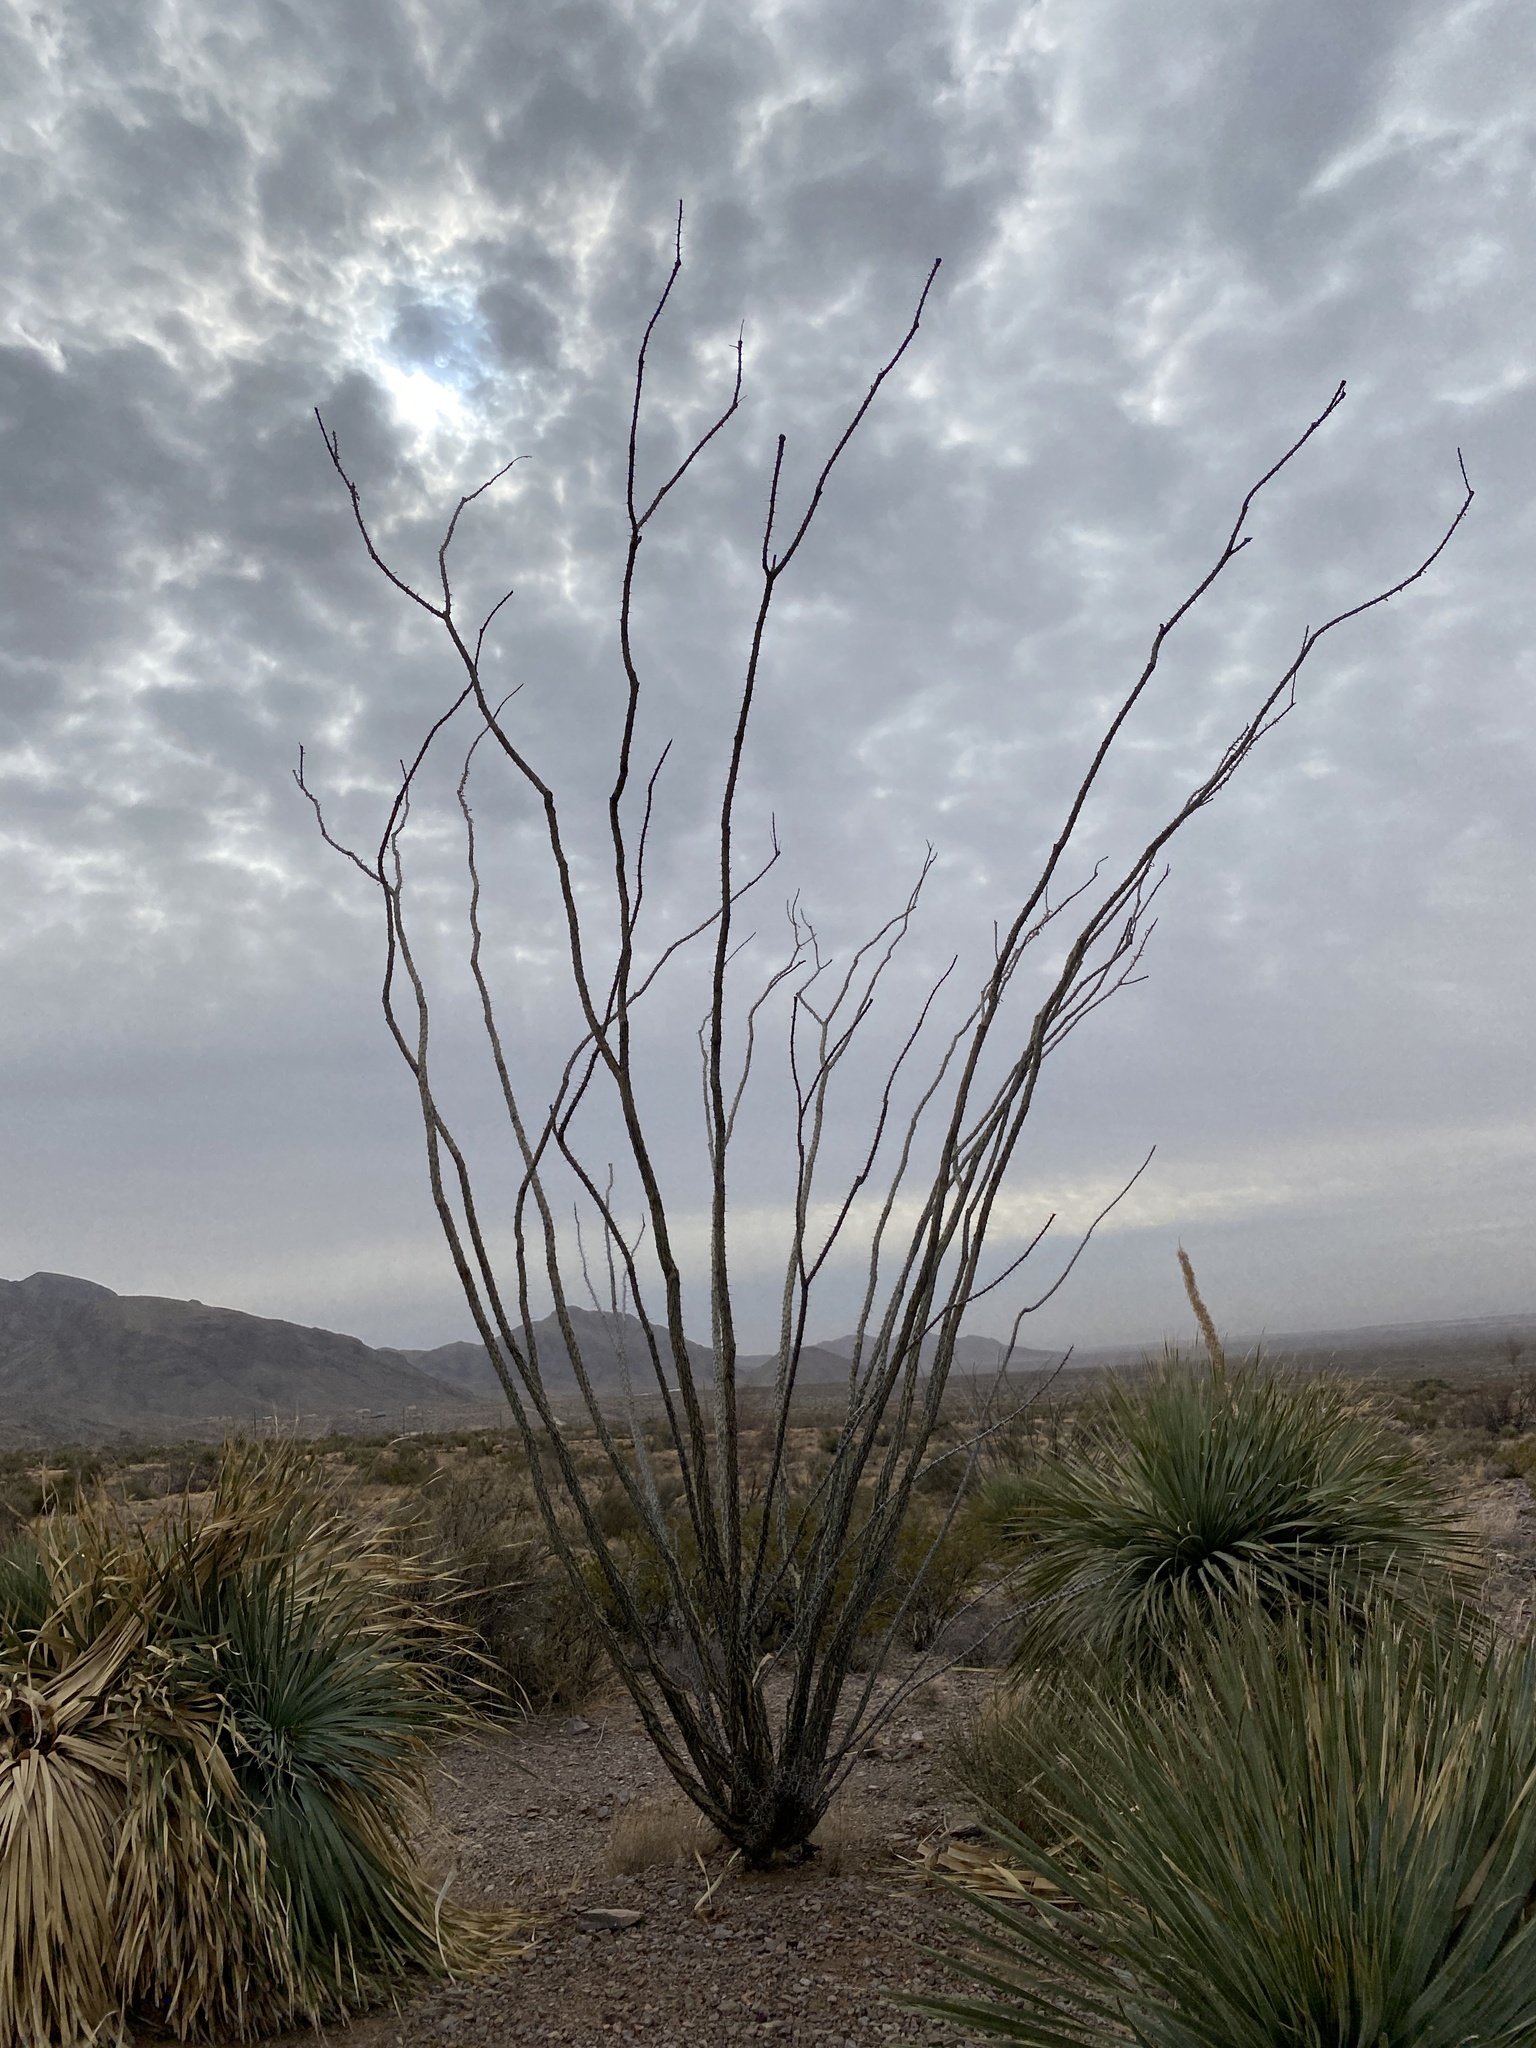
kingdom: Plantae
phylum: Tracheophyta
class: Magnoliopsida
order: Ericales
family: Fouquieriaceae
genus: Fouquieria
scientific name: Fouquieria splendens
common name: Vine-cactus
